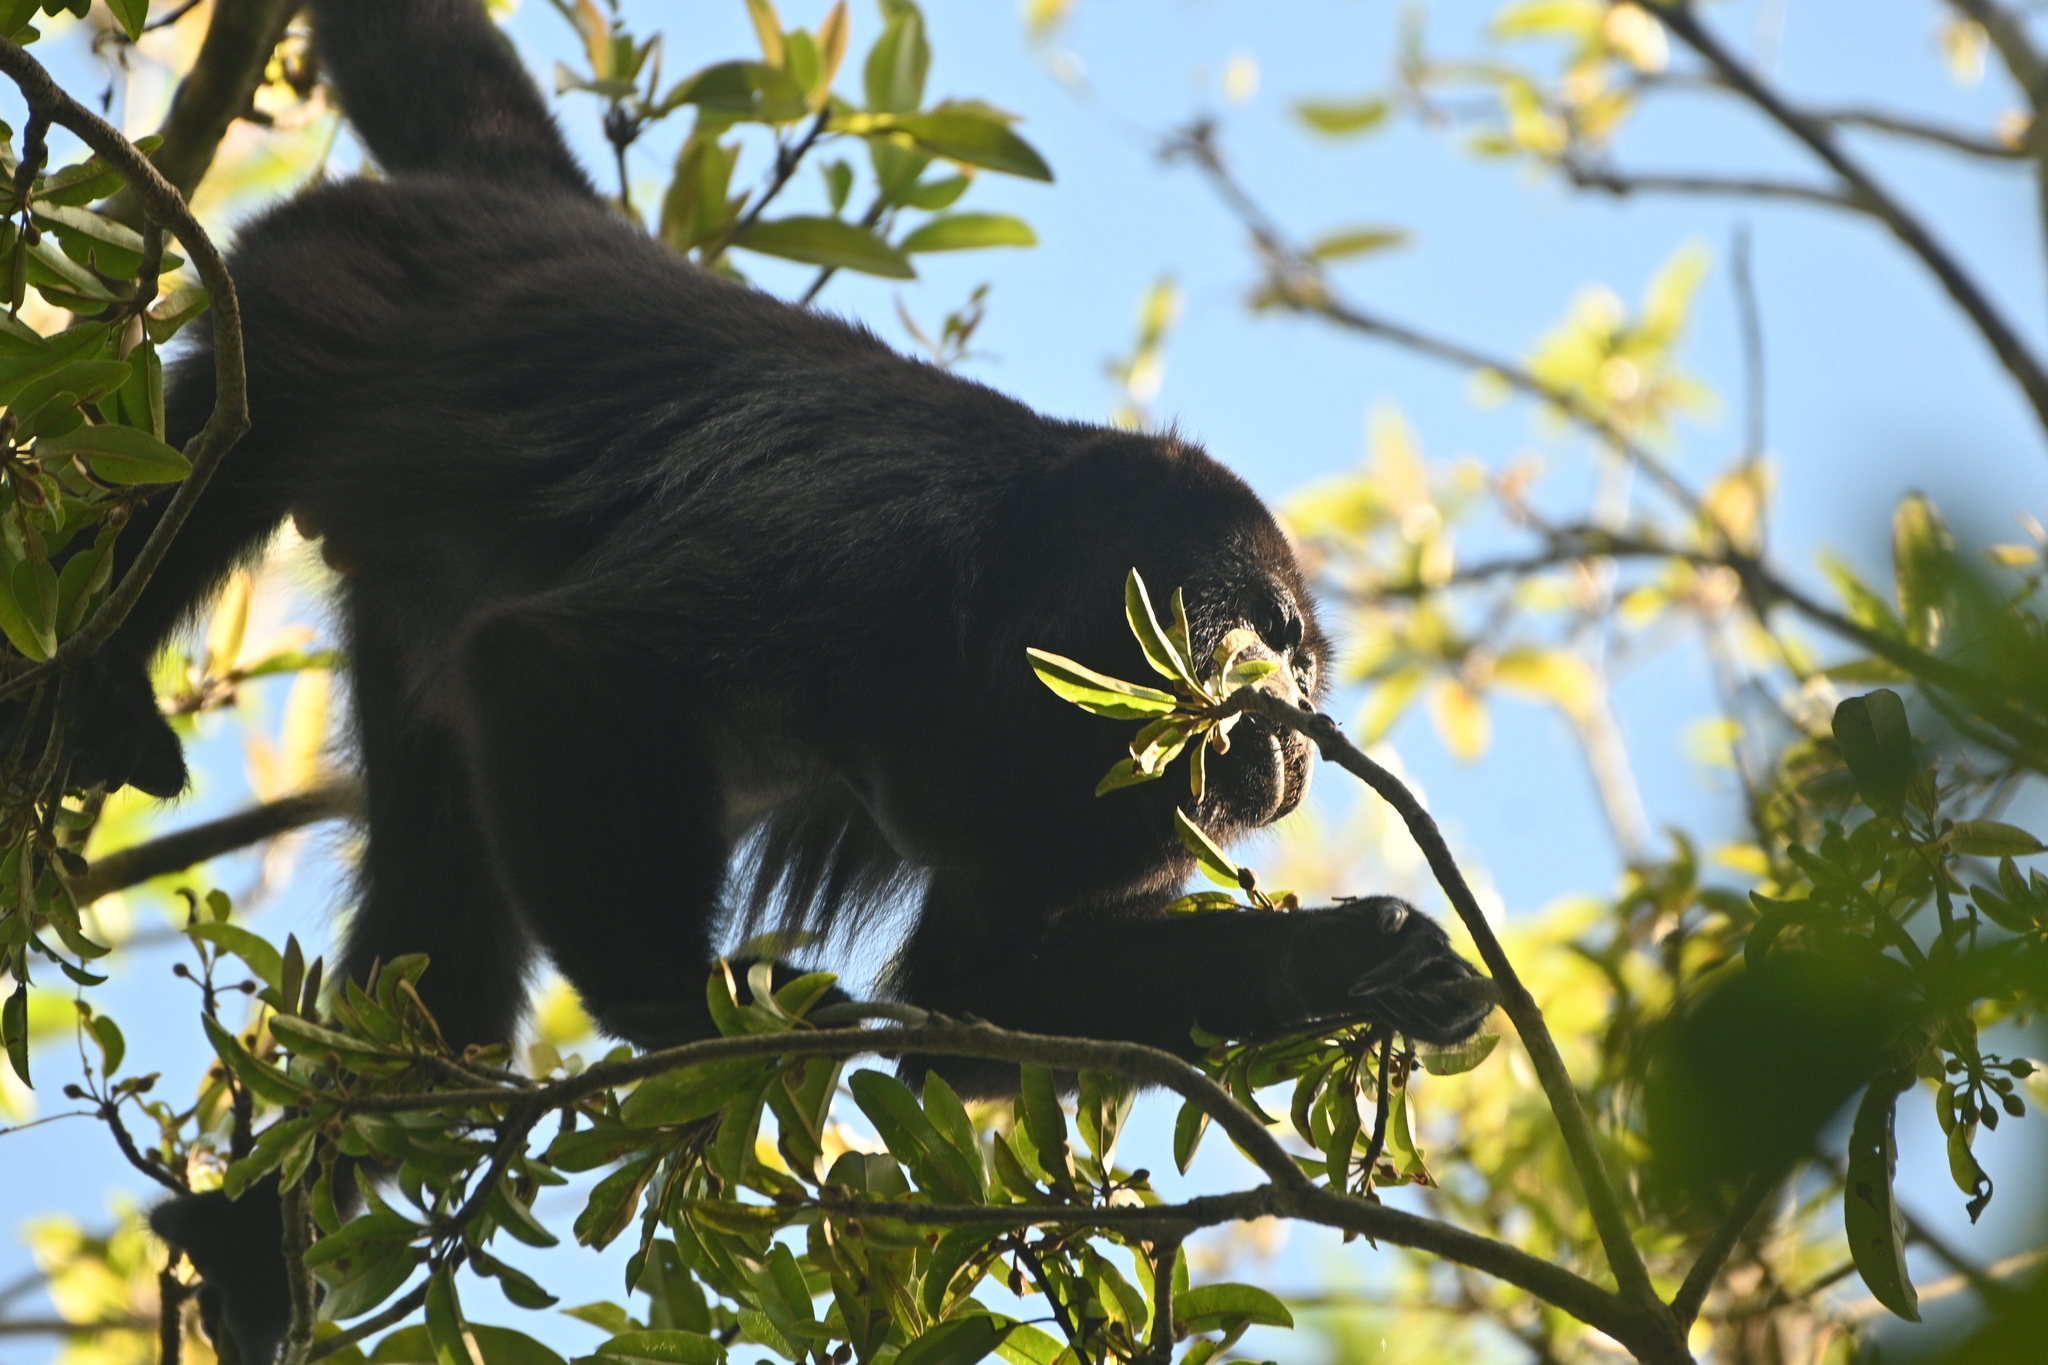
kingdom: Animalia
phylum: Chordata
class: Mammalia
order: Primates
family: Atelidae
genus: Alouatta
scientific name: Alouatta pigra
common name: Guatemalan black howler
